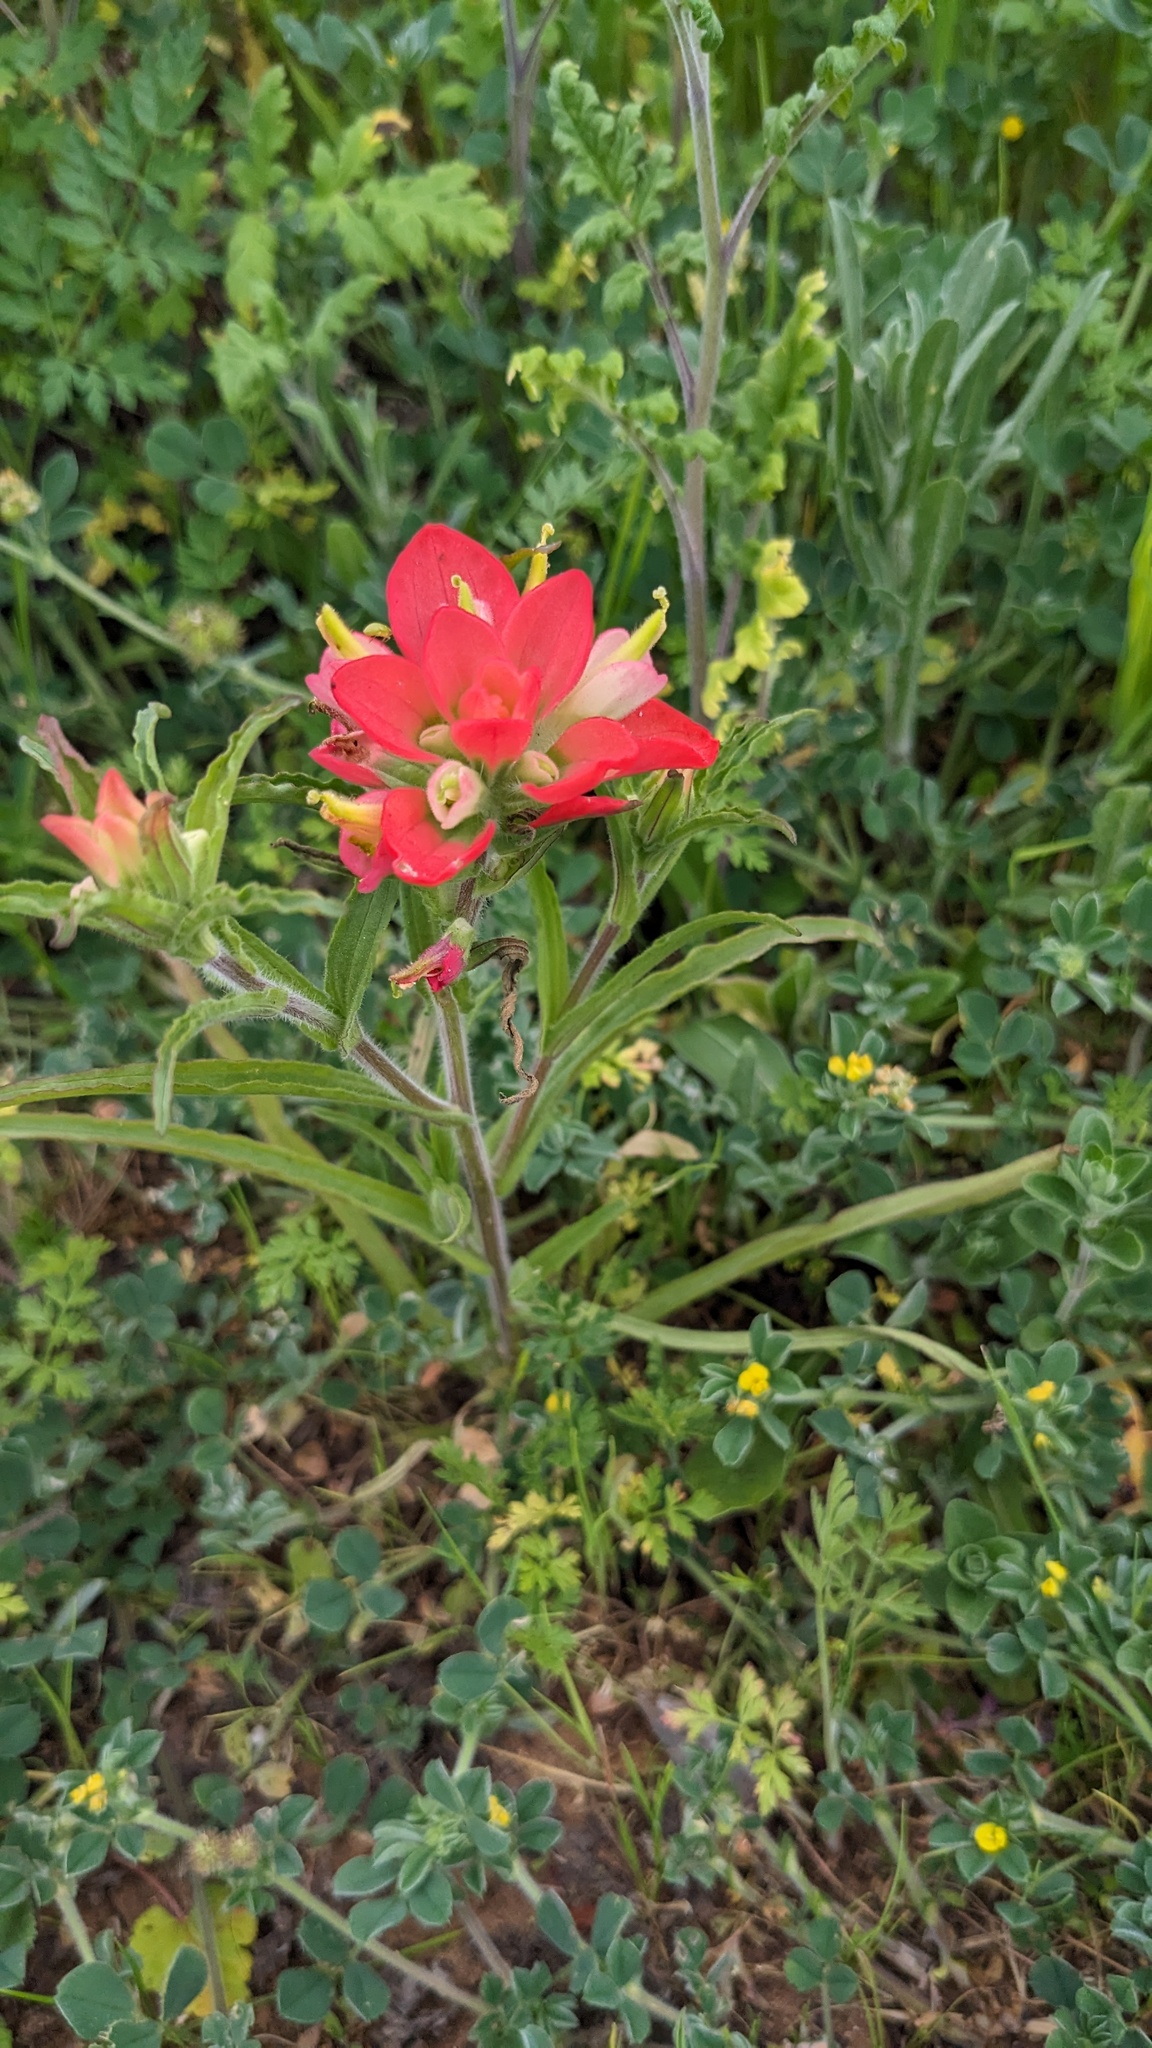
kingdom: Plantae
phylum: Tracheophyta
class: Magnoliopsida
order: Lamiales
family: Orobanchaceae
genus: Castilleja
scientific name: Castilleja indivisa
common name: Texas paintbrush
